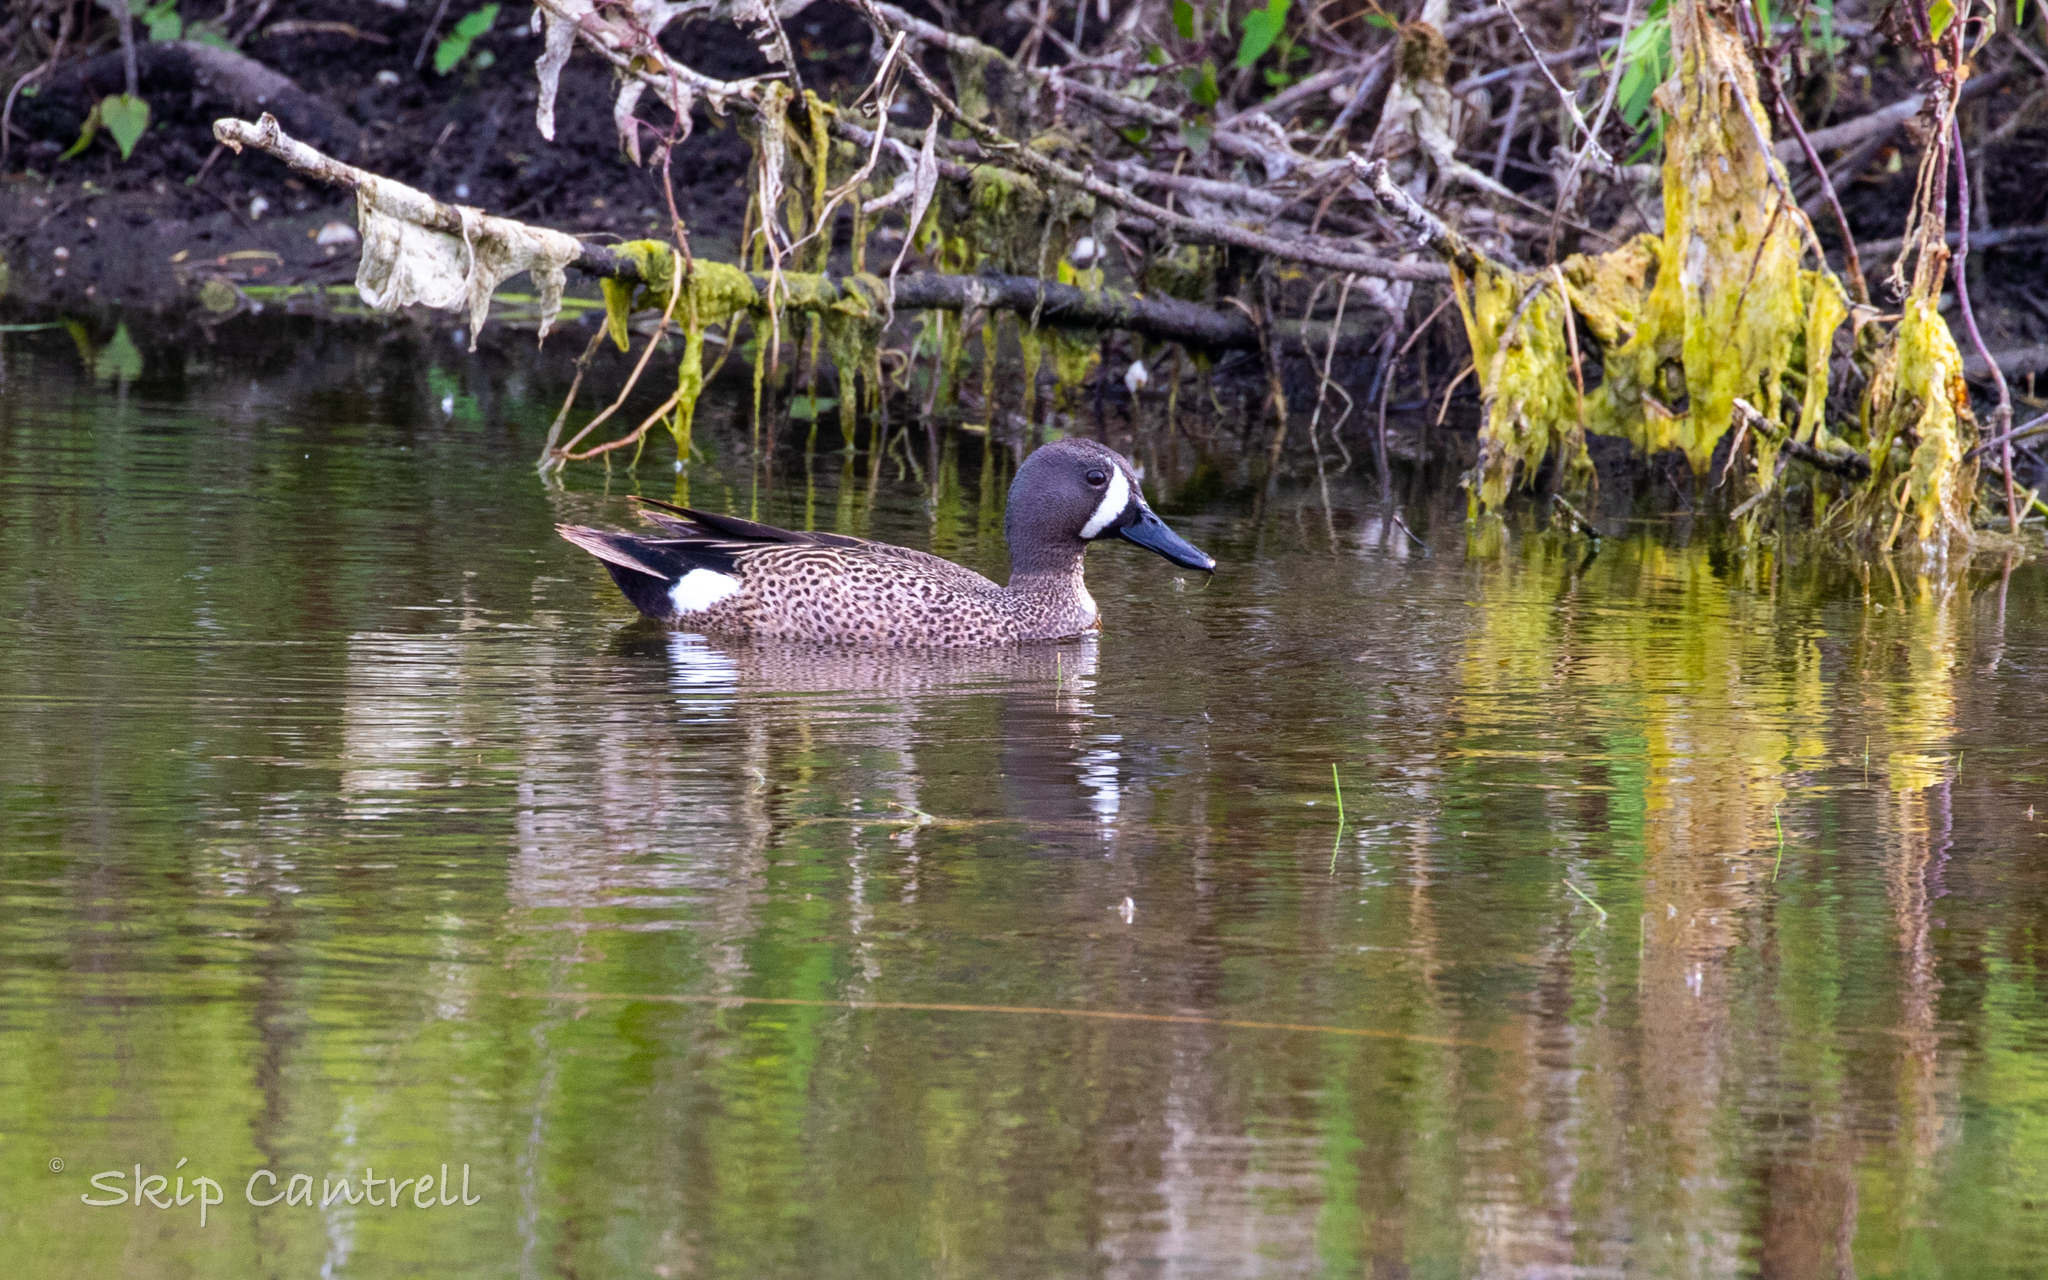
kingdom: Animalia
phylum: Chordata
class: Aves
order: Anseriformes
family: Anatidae
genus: Spatula
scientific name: Spatula discors
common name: Blue-winged teal
